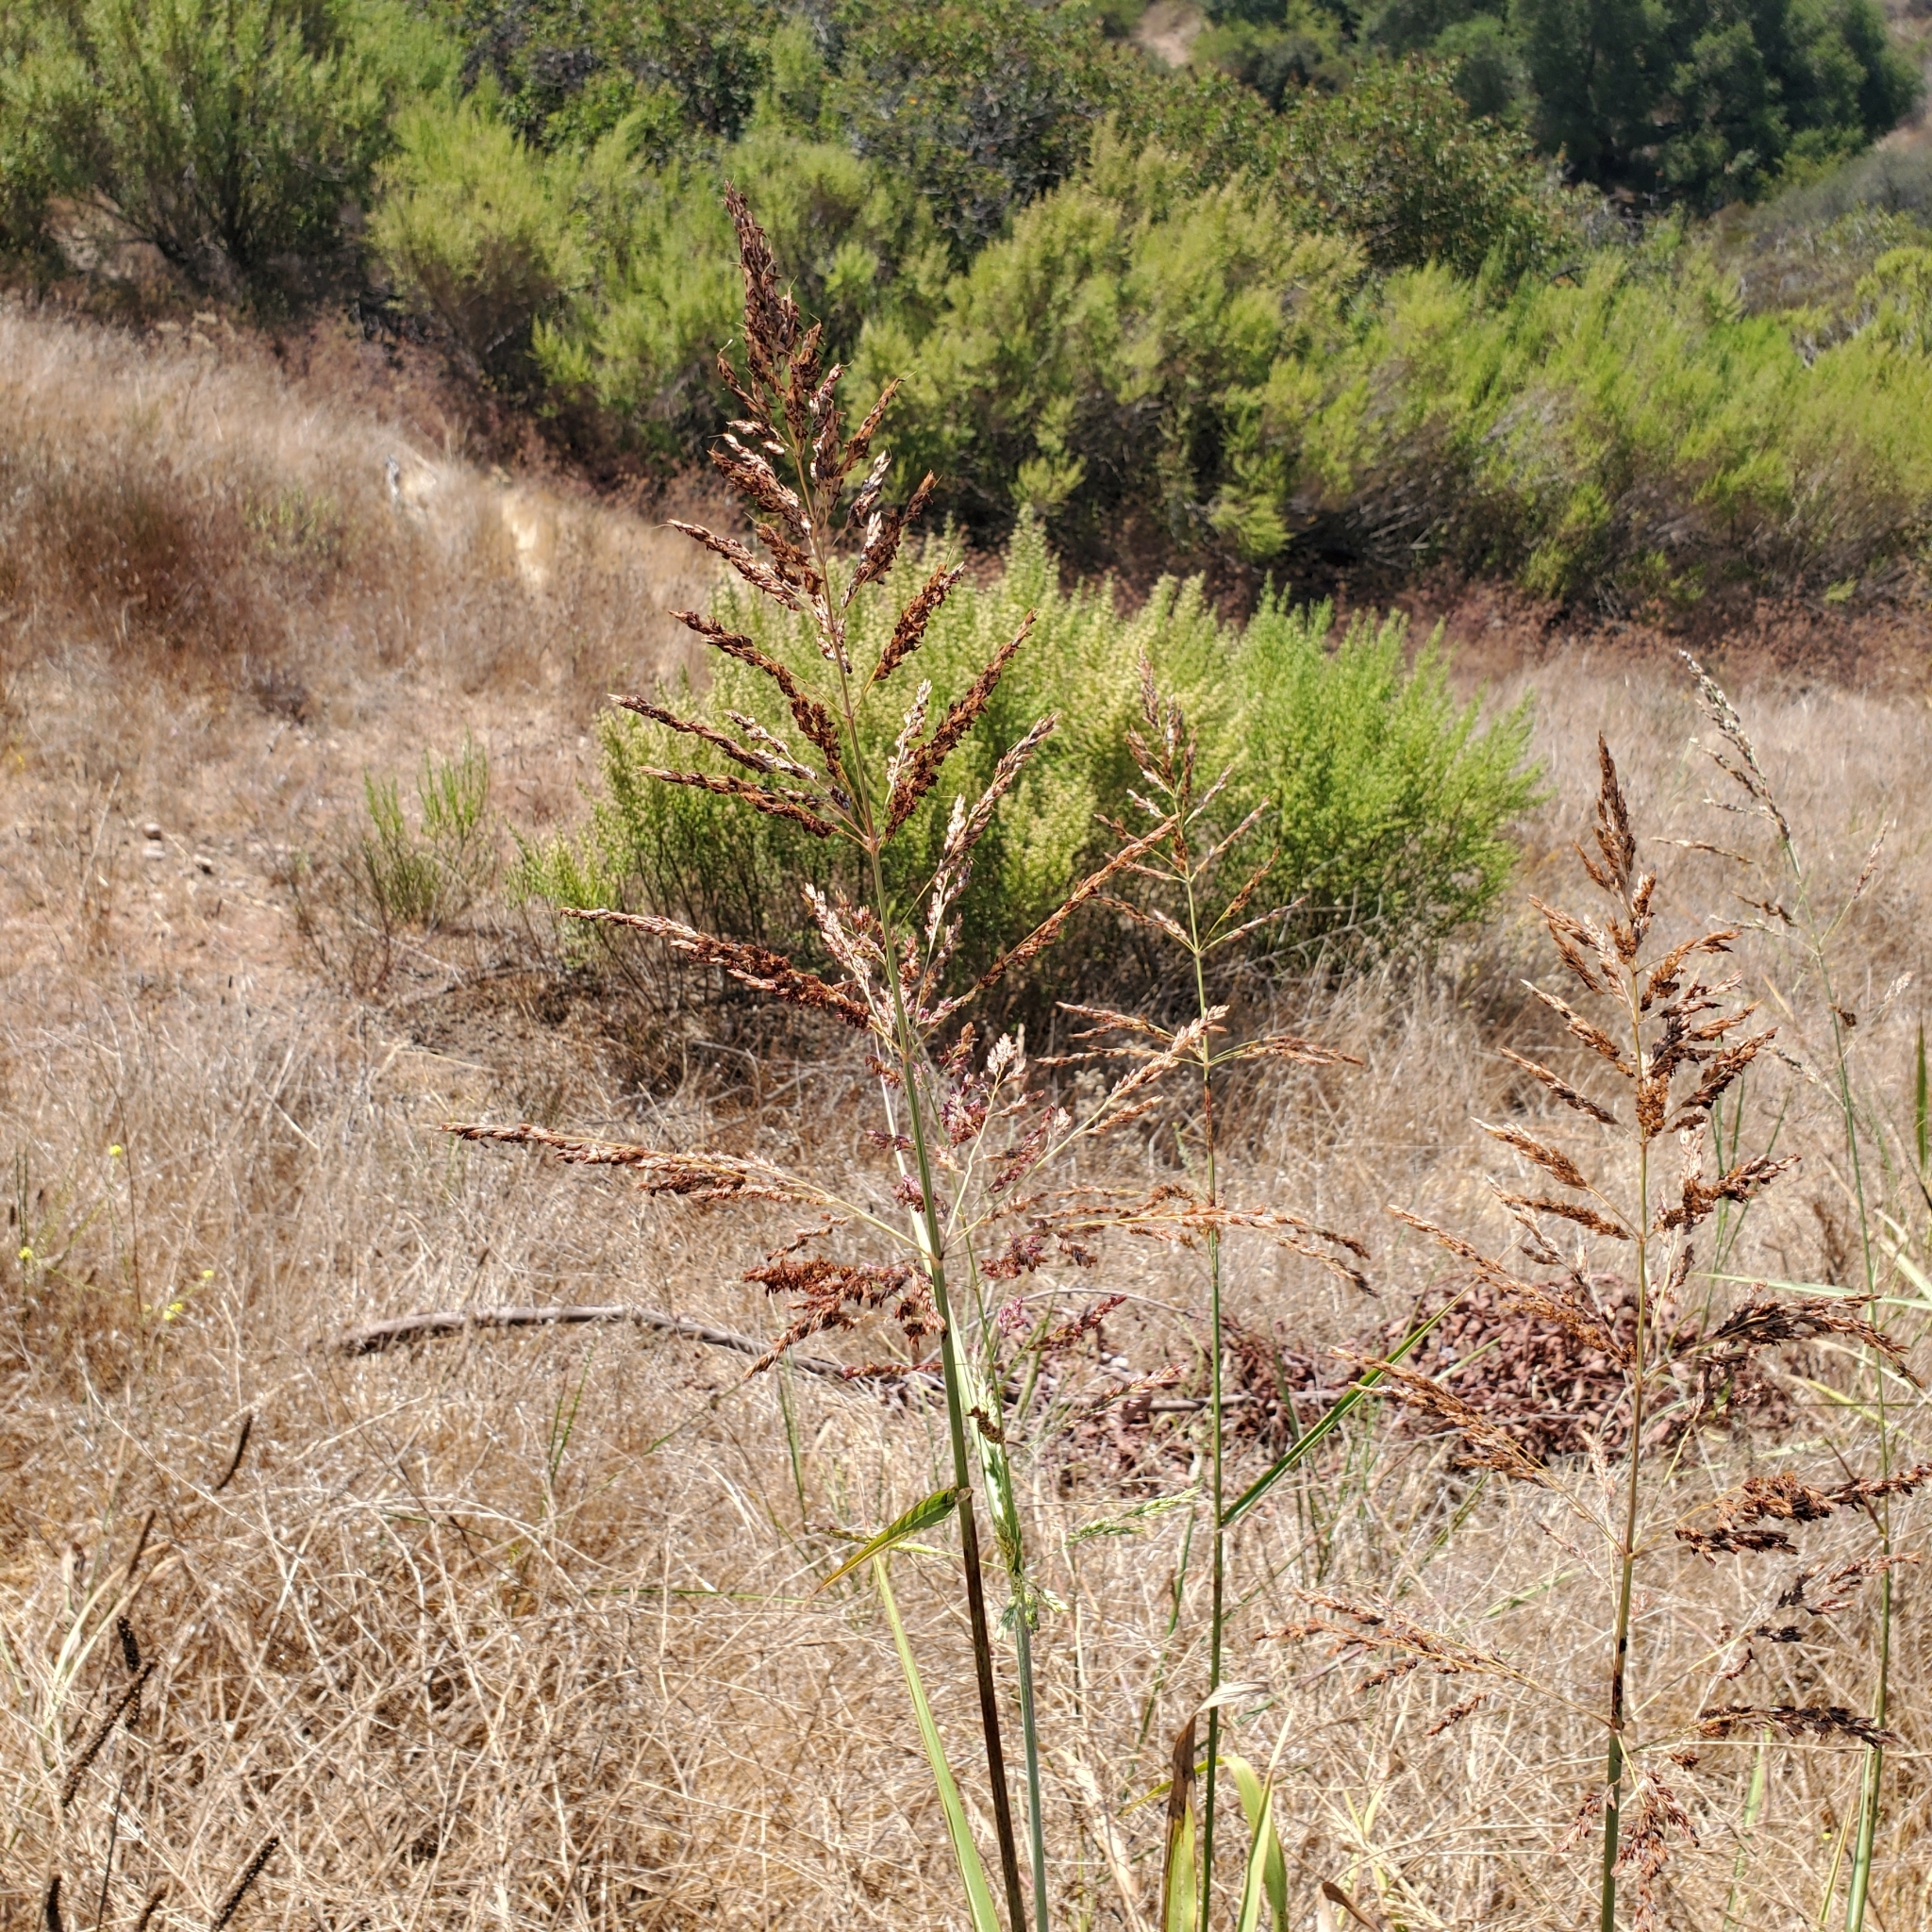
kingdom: Plantae
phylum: Tracheophyta
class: Liliopsida
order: Poales
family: Poaceae
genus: Sorghum
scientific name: Sorghum halepense
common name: Johnson-grass
